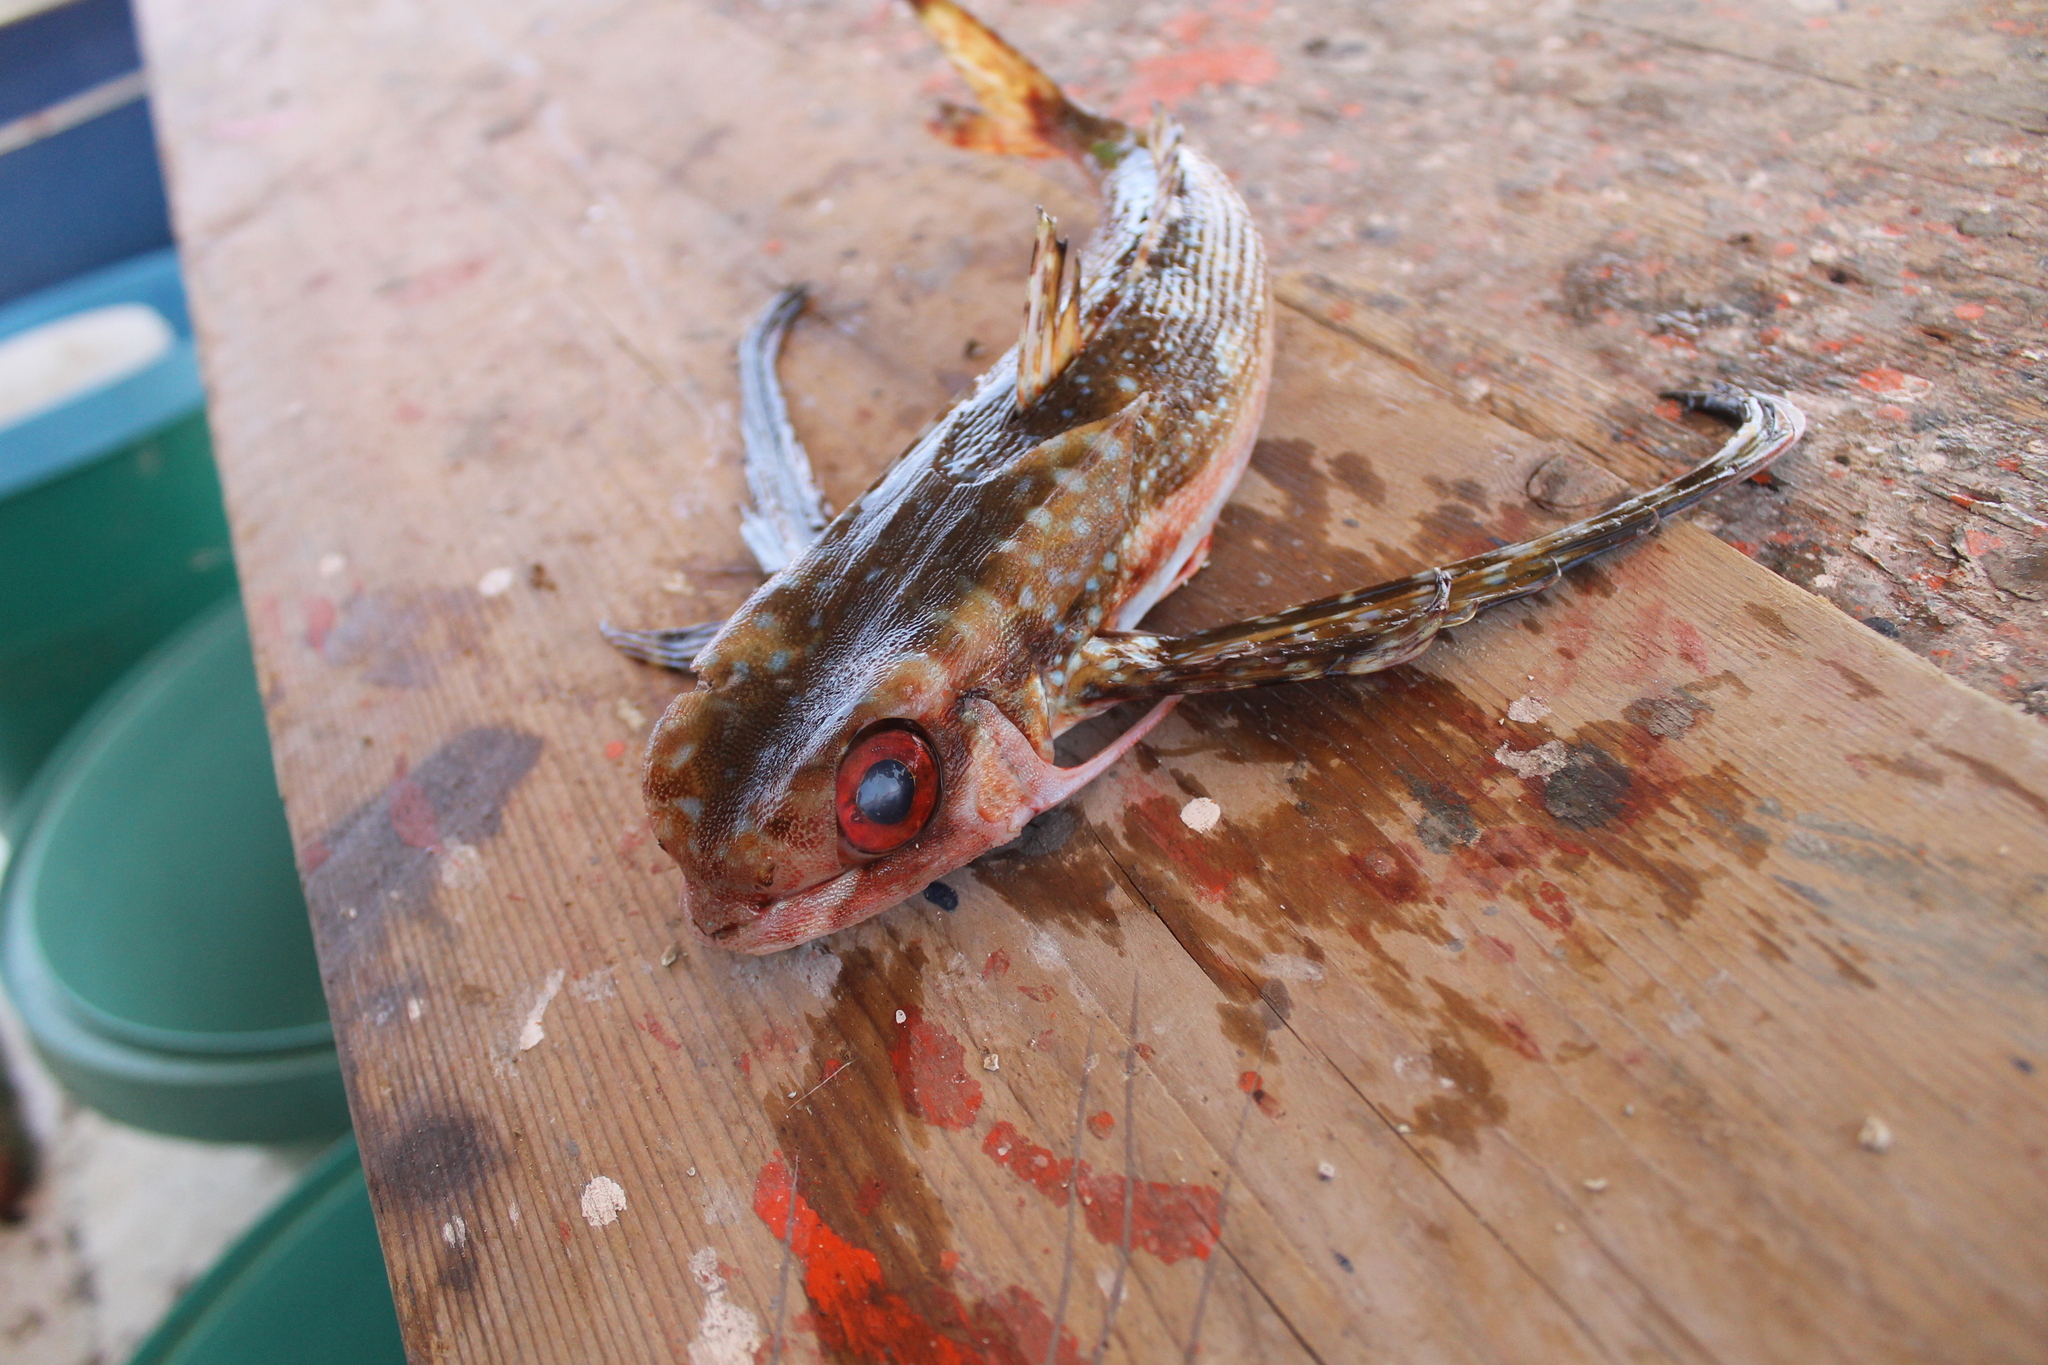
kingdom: Animalia
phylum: Chordata
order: Scorpaeniformes
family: Dactylopteridae
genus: Dactylopterus
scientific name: Dactylopterus volitans
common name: Flying gurnard
